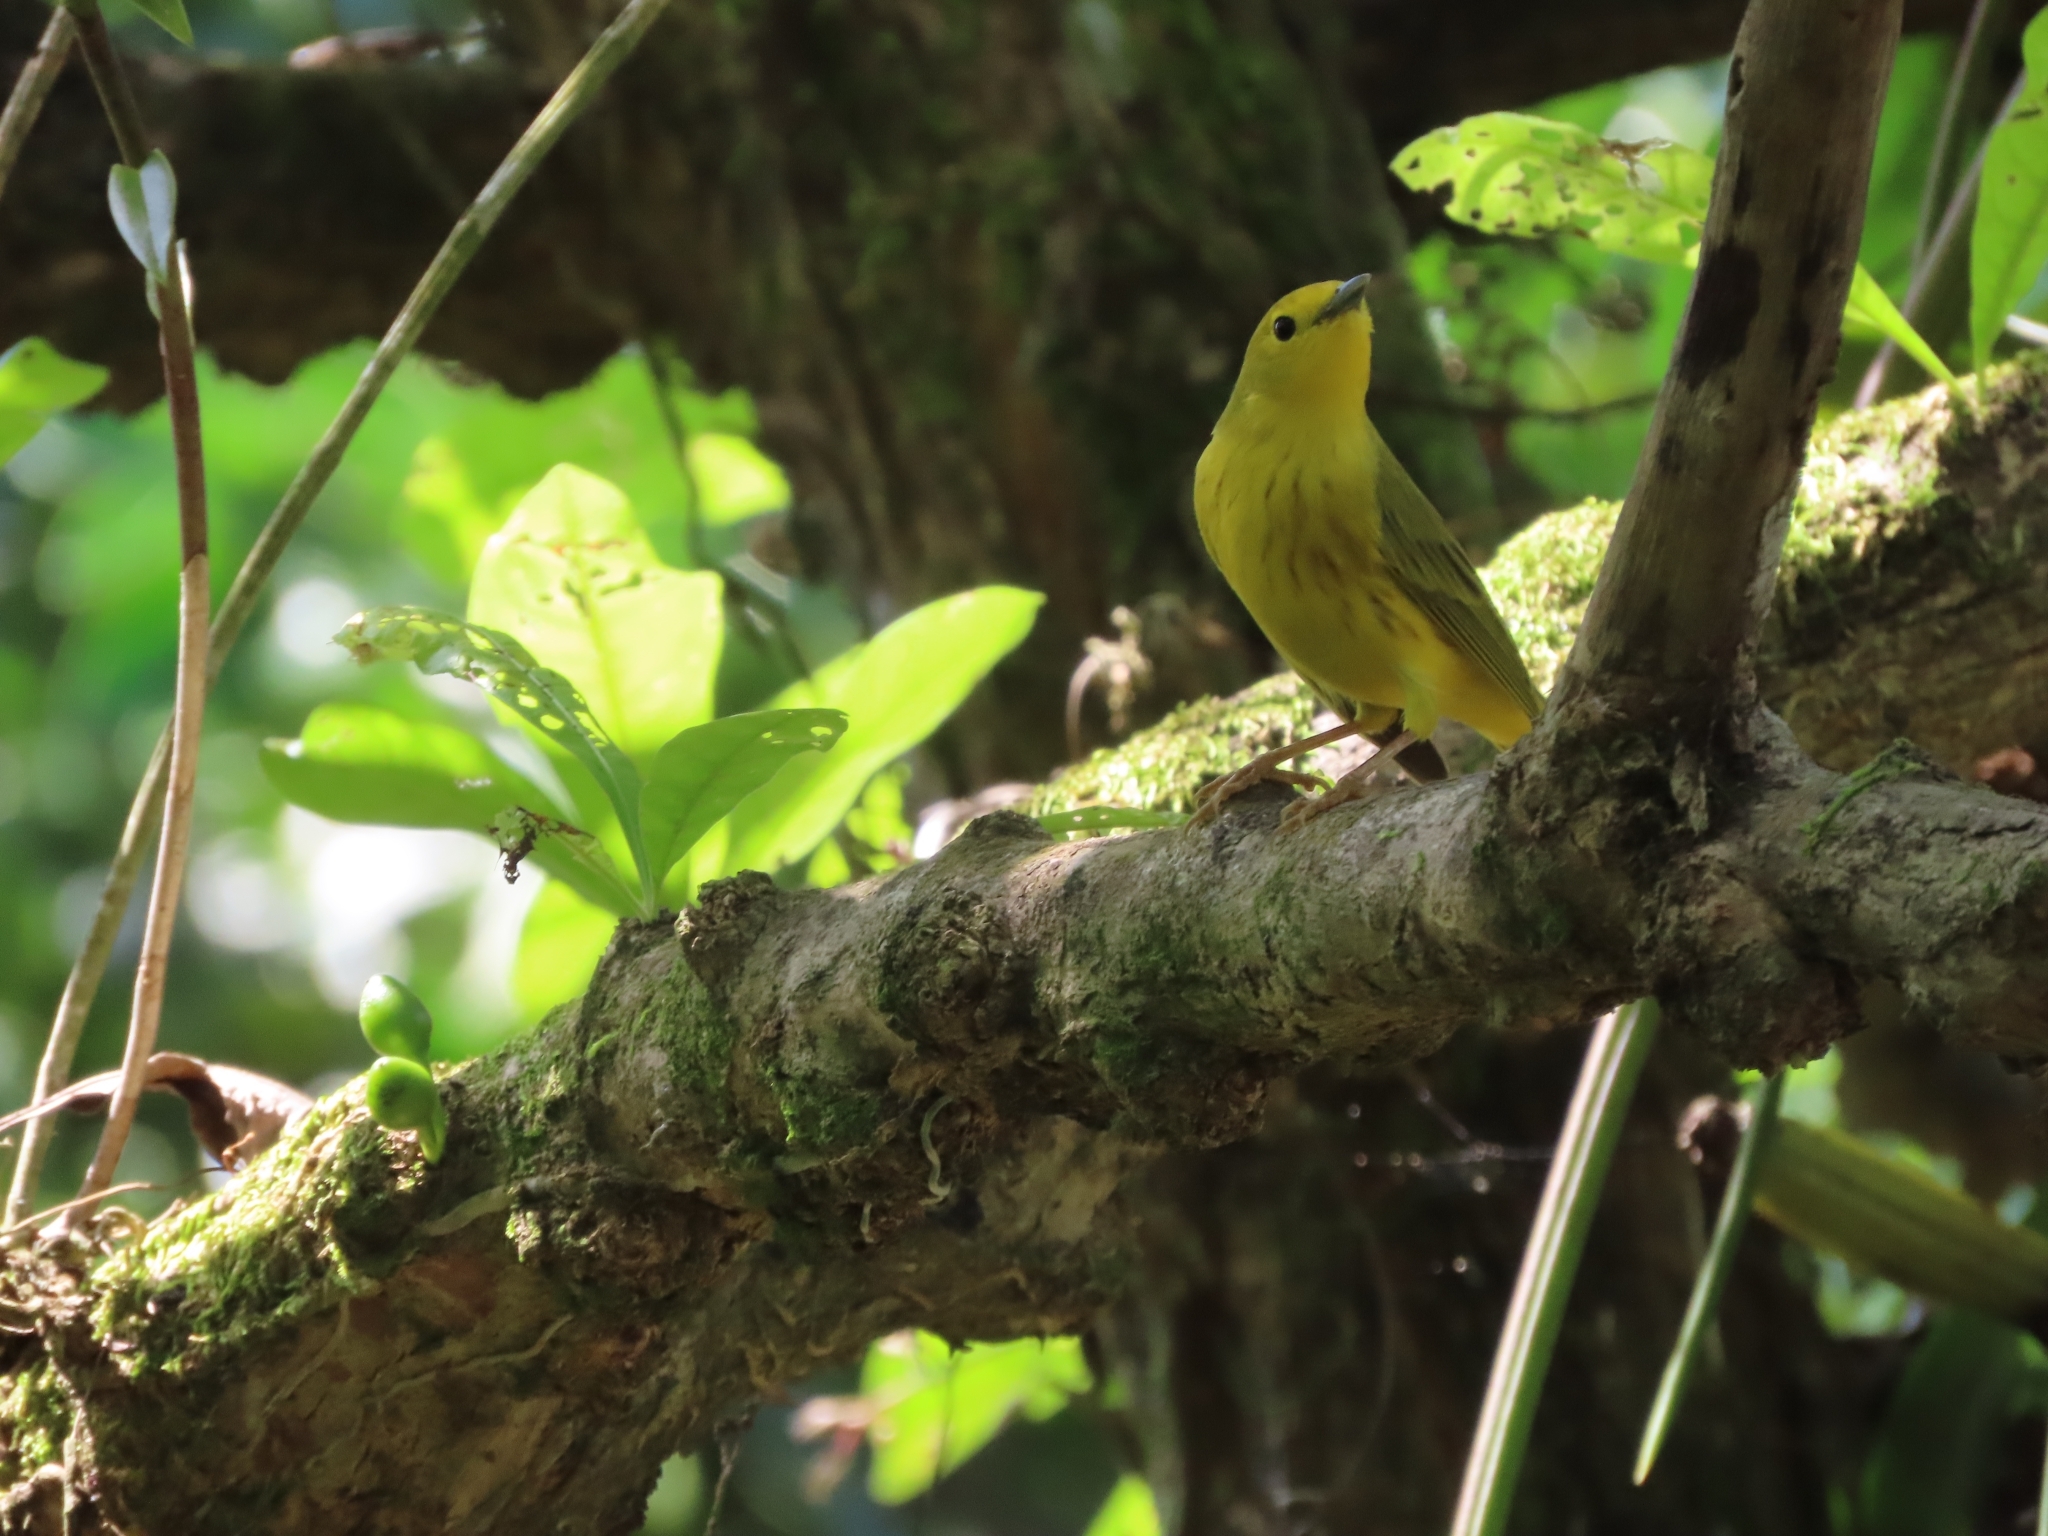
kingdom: Animalia
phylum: Chordata
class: Aves
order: Passeriformes
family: Parulidae
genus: Setophaga
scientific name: Setophaga petechia
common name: Yellow warbler
